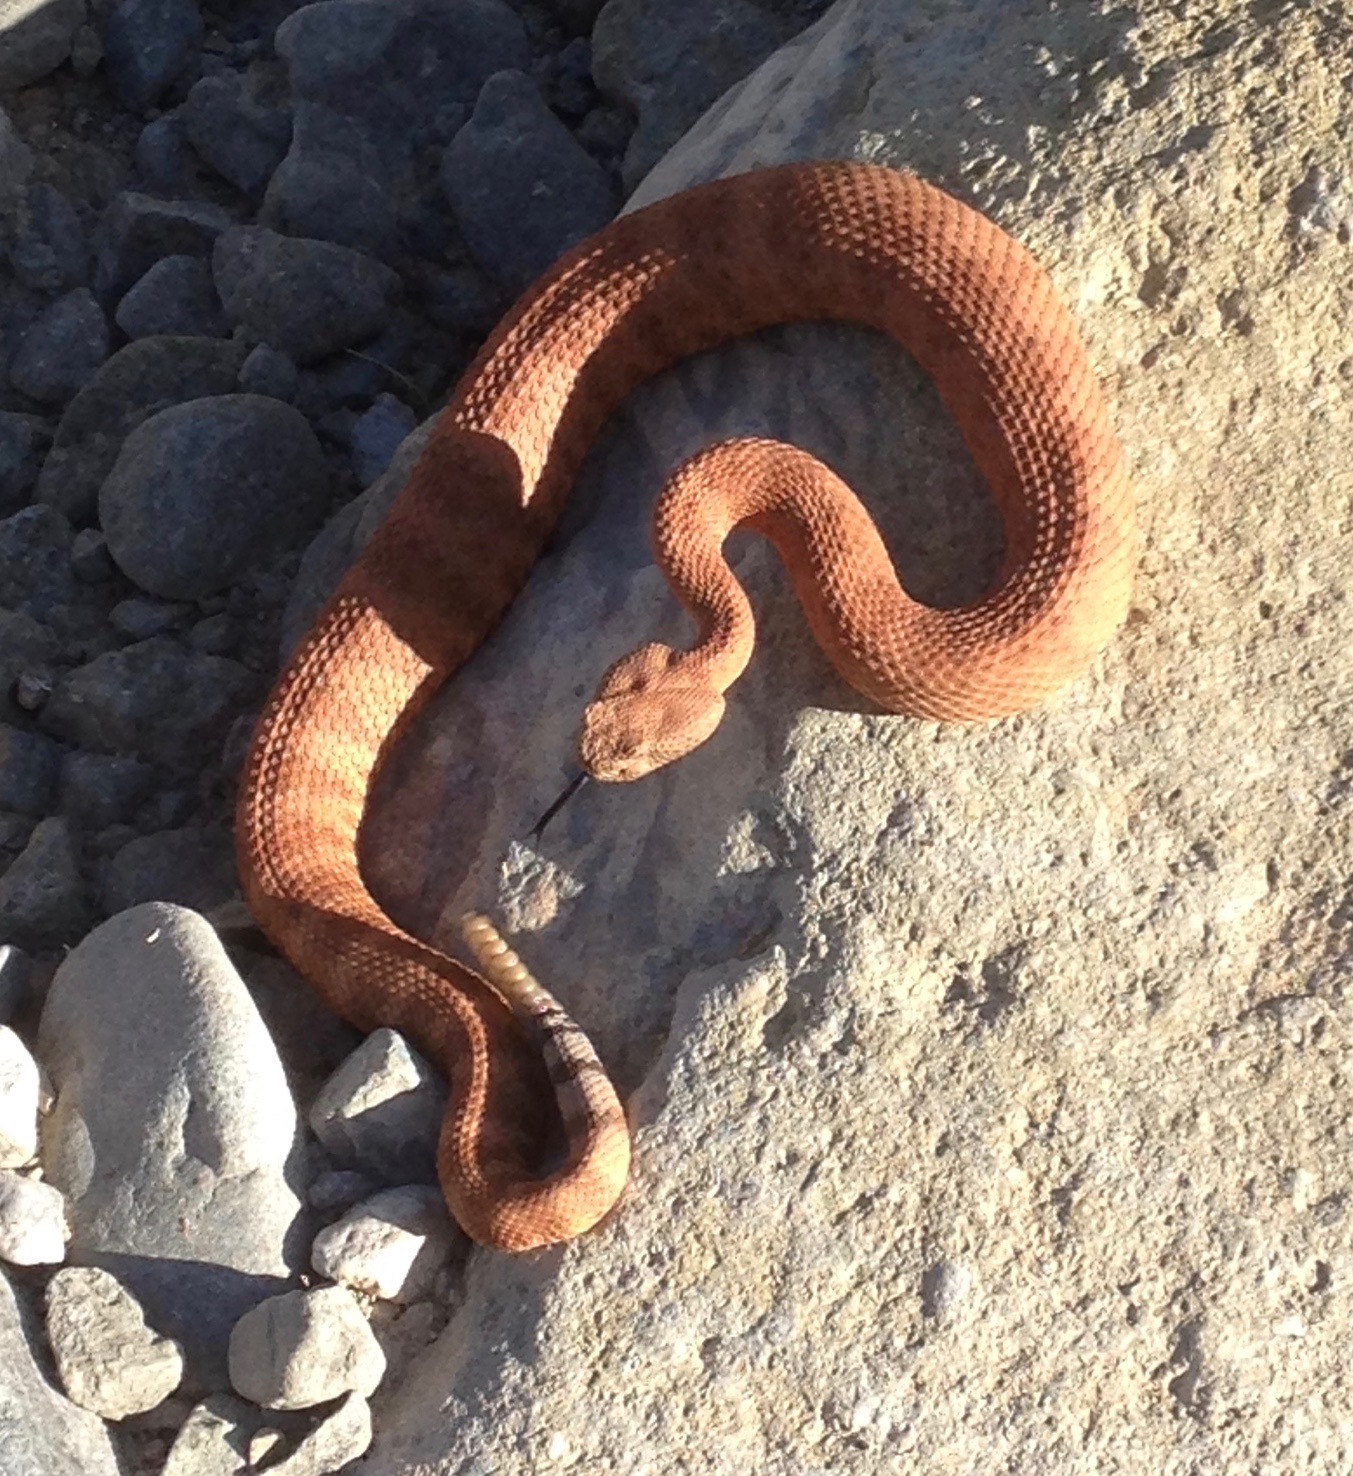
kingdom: Animalia
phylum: Chordata
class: Squamata
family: Viperidae
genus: Crotalus
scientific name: Crotalus pyrrhus
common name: Southwestern speckled rattlesnake
